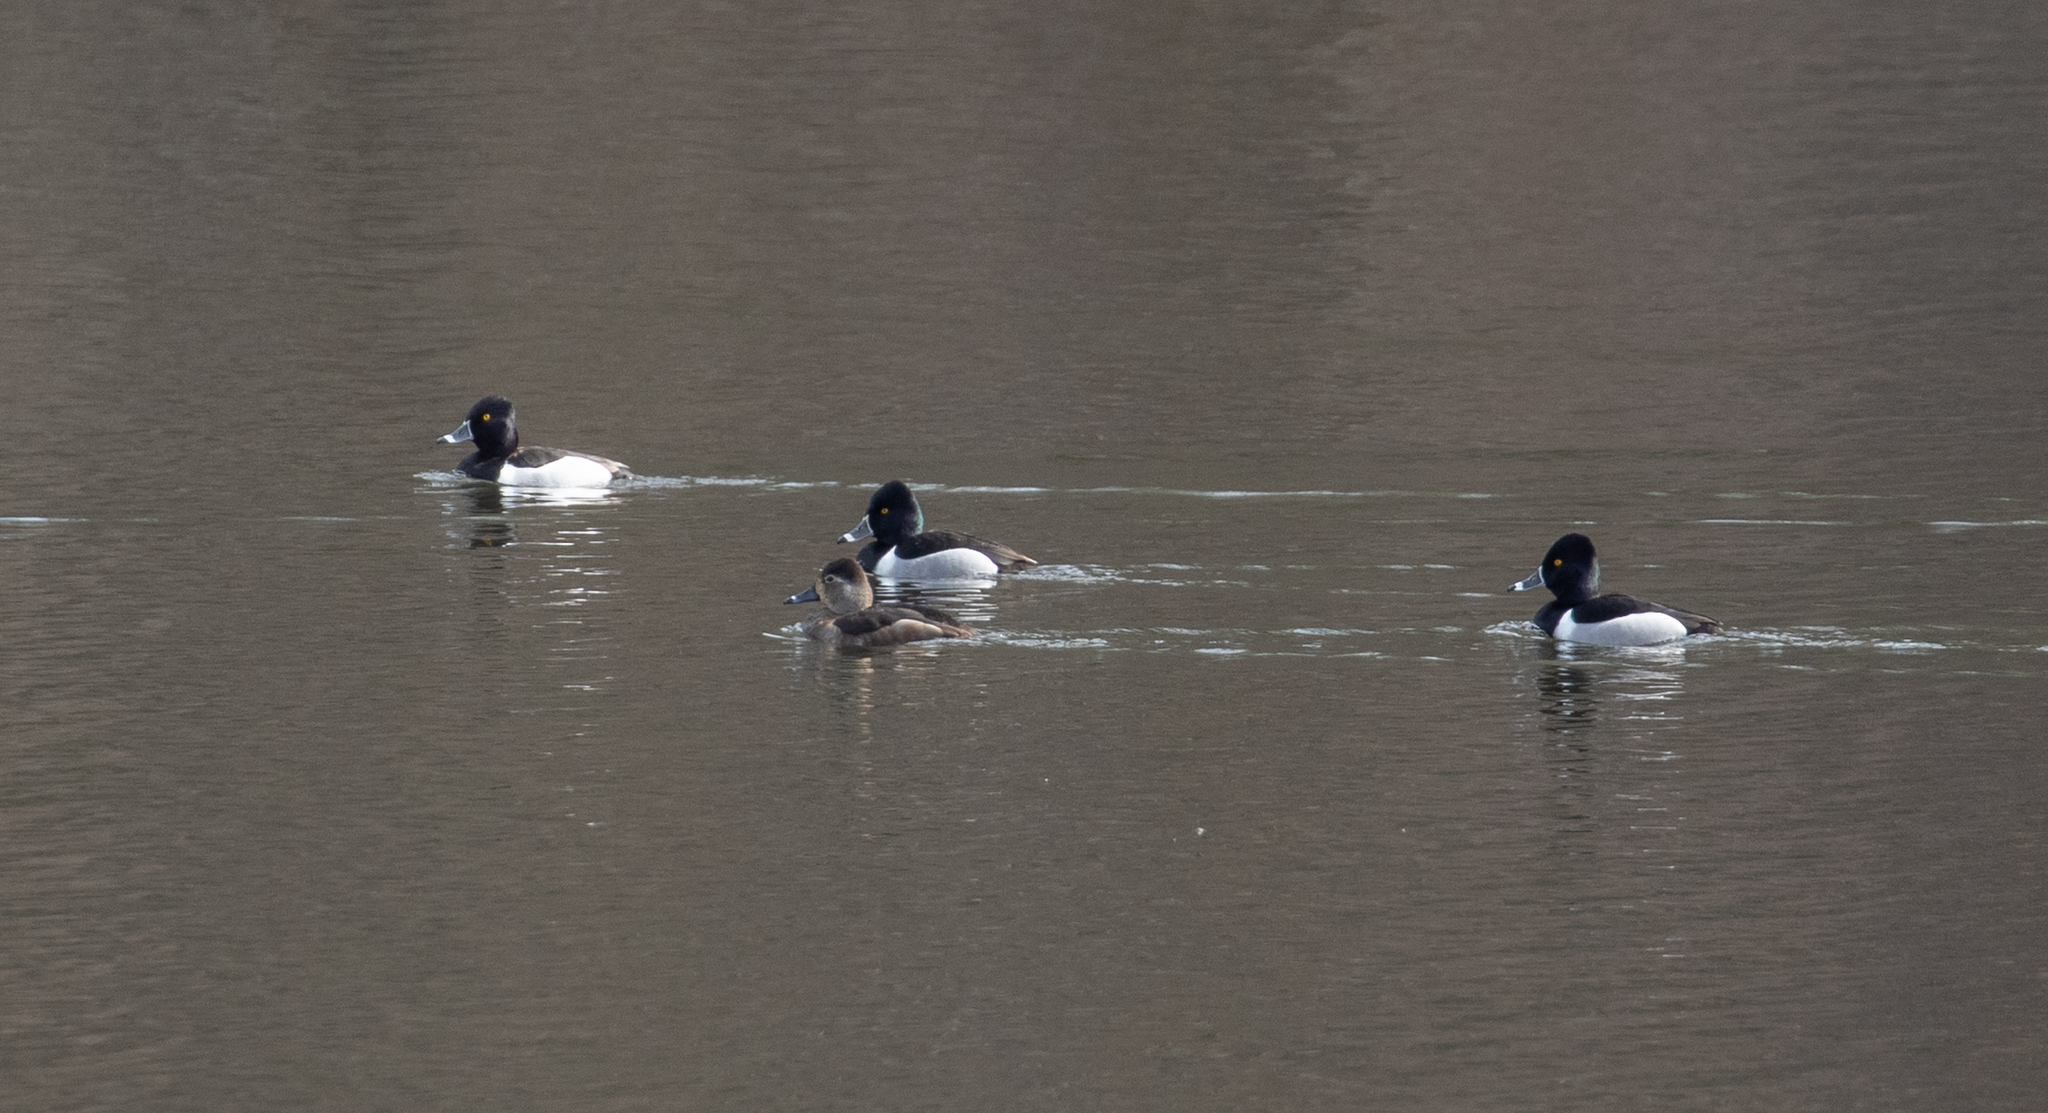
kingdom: Animalia
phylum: Chordata
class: Aves
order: Anseriformes
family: Anatidae
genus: Aythya
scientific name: Aythya collaris
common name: Ring-necked duck
